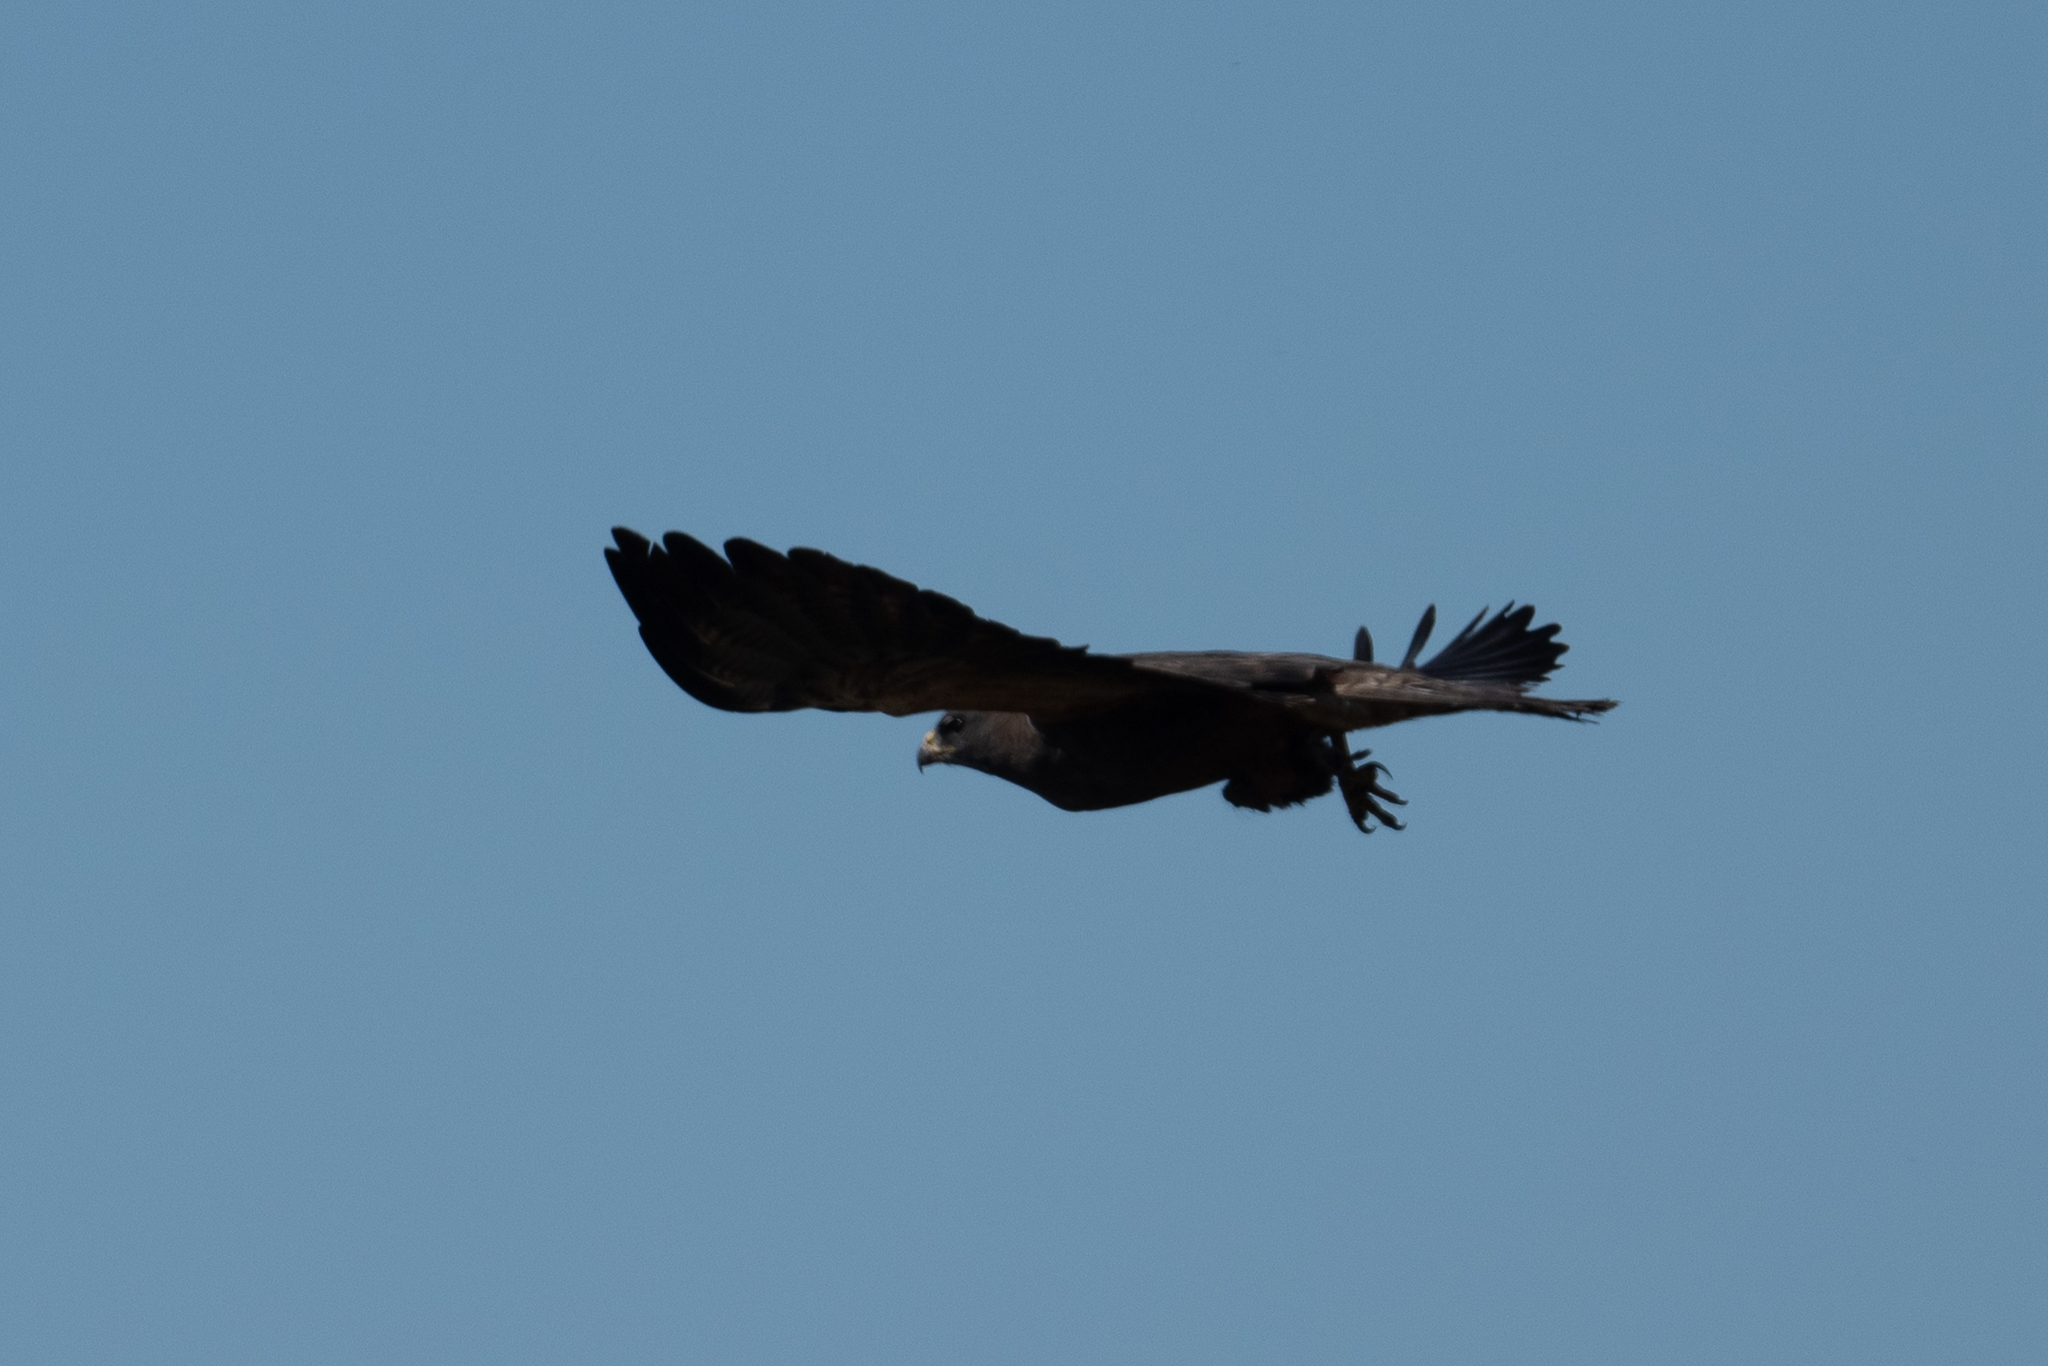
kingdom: Animalia
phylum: Chordata
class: Aves
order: Accipitriformes
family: Accipitridae
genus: Buteo
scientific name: Buteo swainsoni
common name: Swainson's hawk
